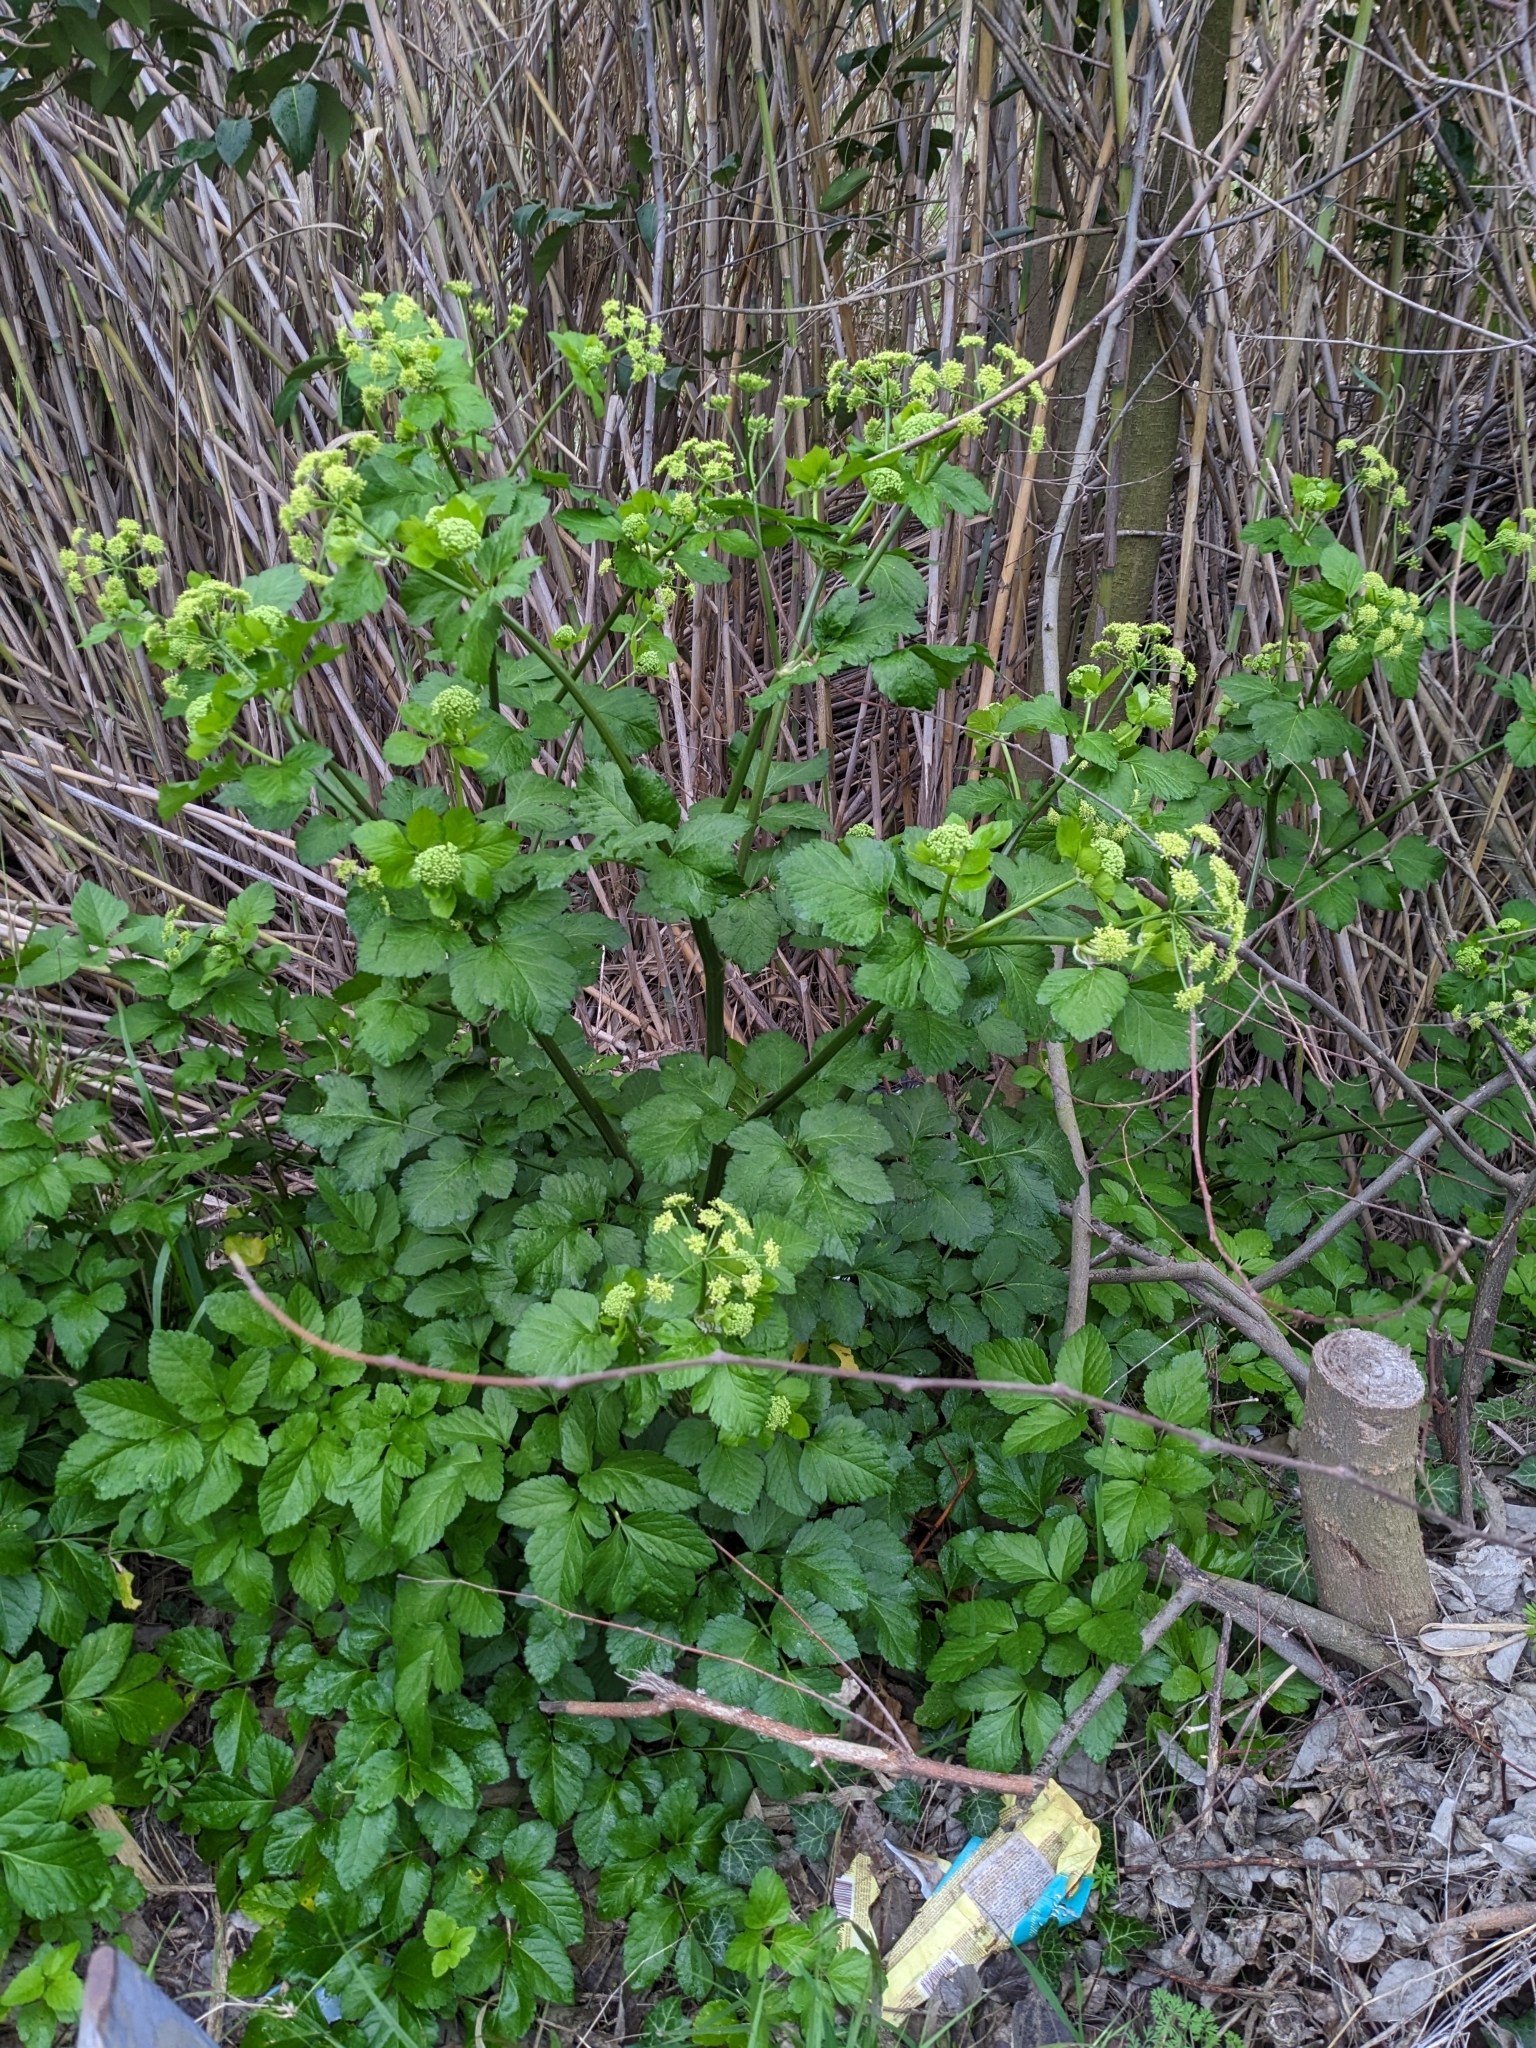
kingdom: Plantae
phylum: Tracheophyta
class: Magnoliopsida
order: Apiales
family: Apiaceae
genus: Smyrnium
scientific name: Smyrnium olusatrum
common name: Alexanders
